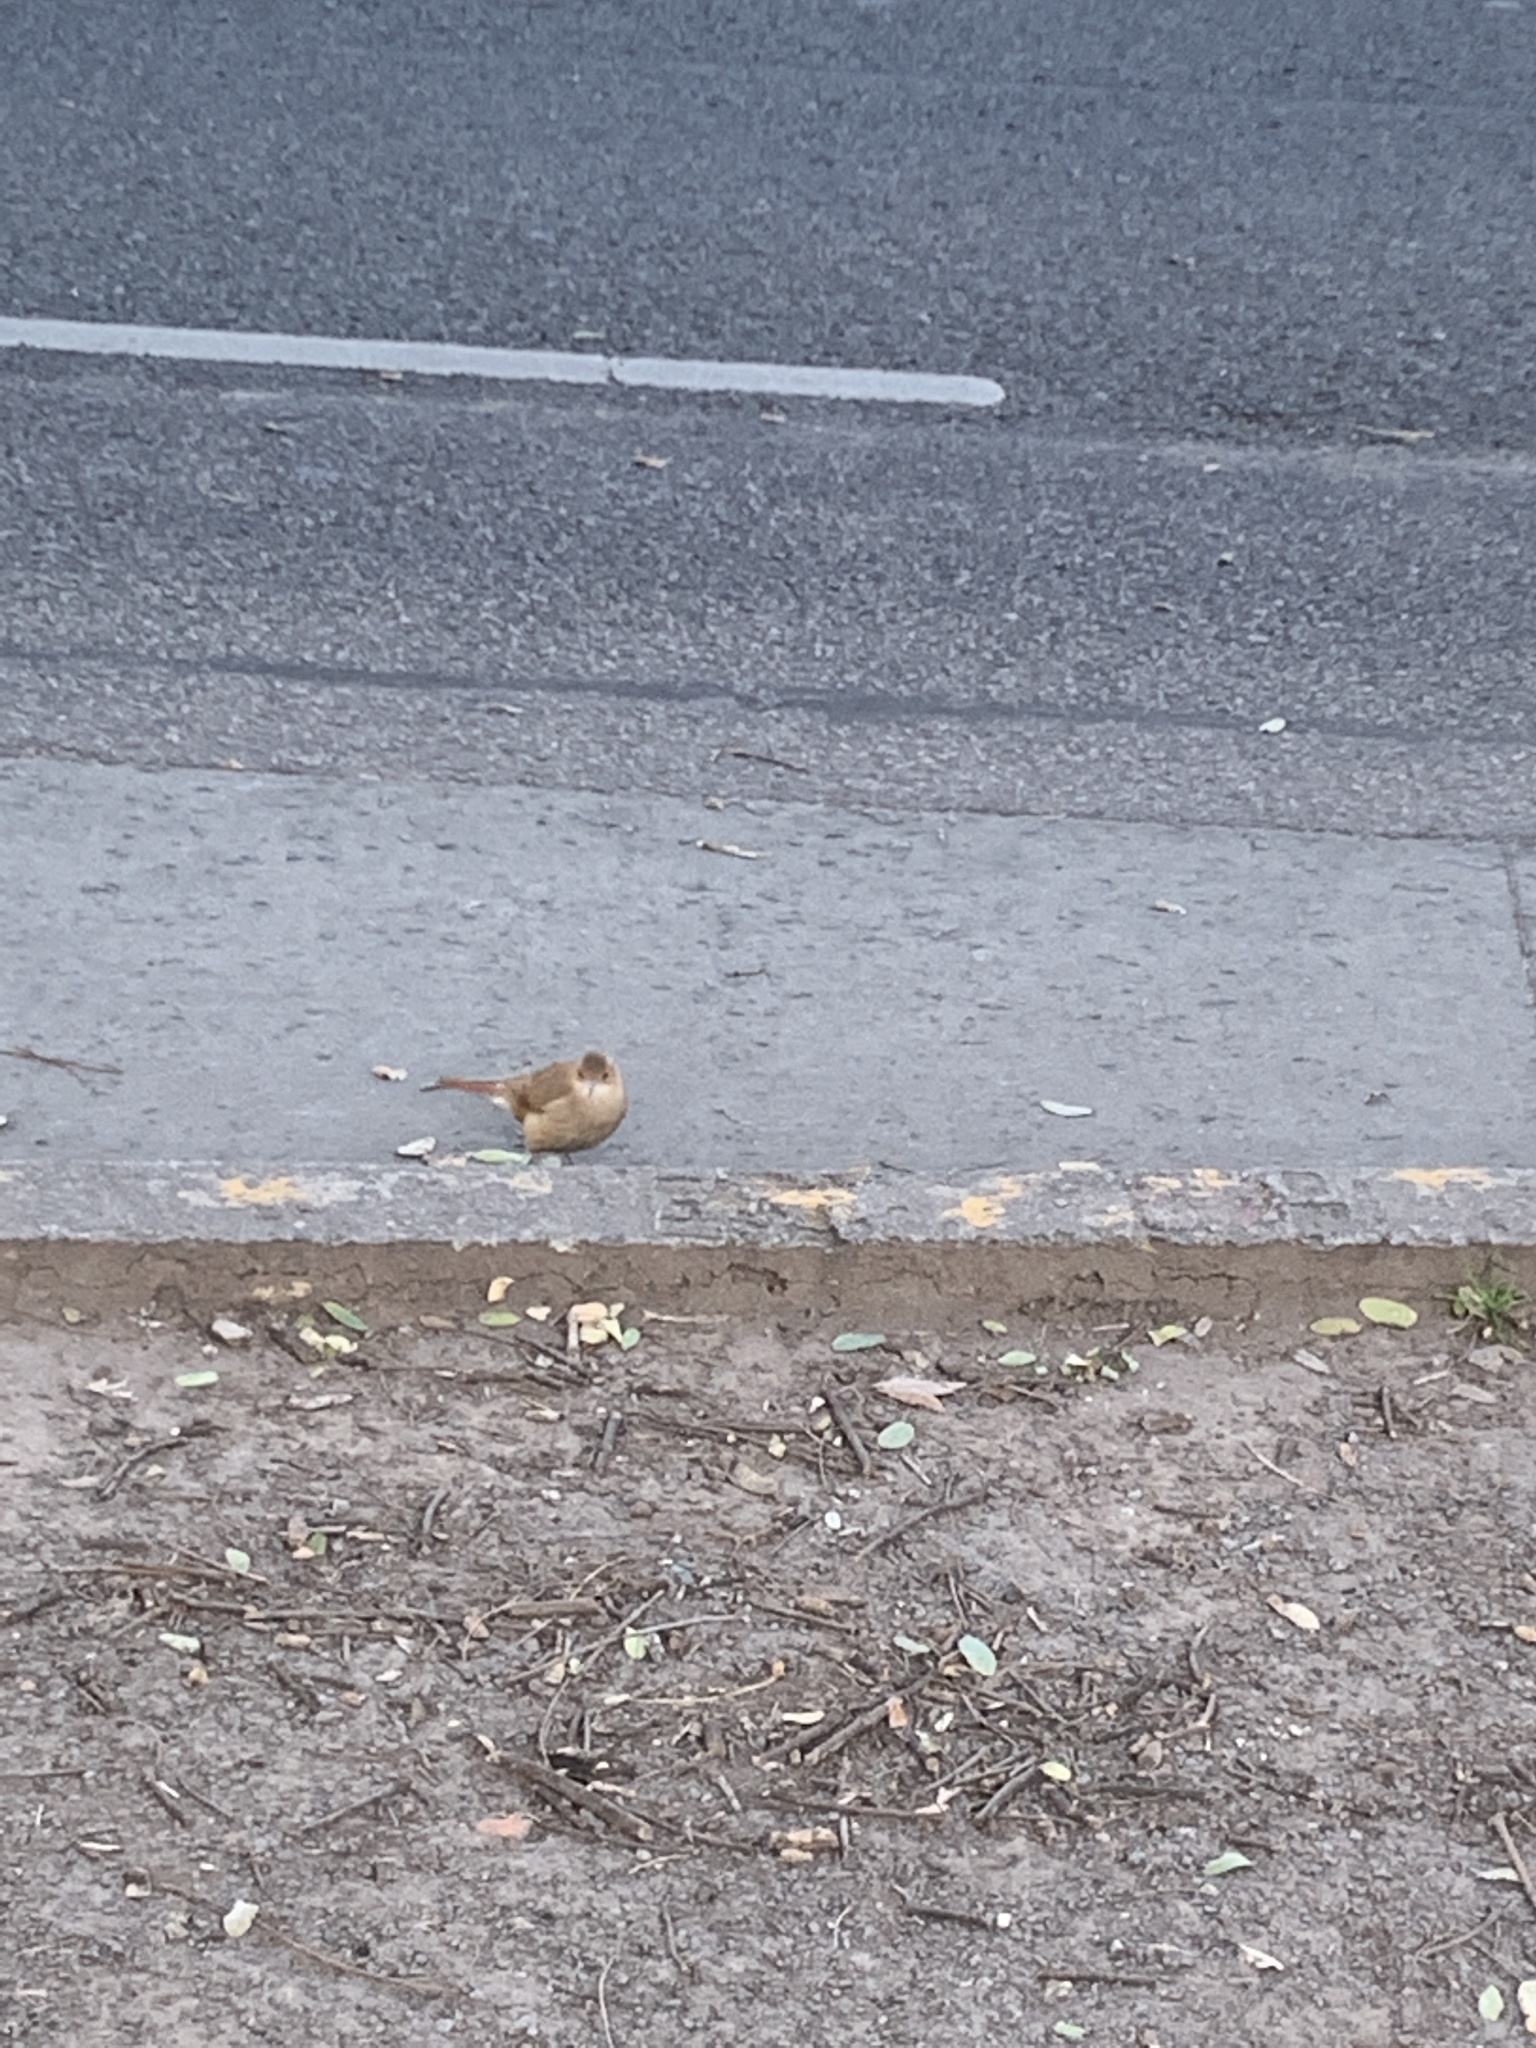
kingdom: Animalia
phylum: Chordata
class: Aves
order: Passeriformes
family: Furnariidae
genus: Furnarius
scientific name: Furnarius rufus
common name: Rufous hornero
